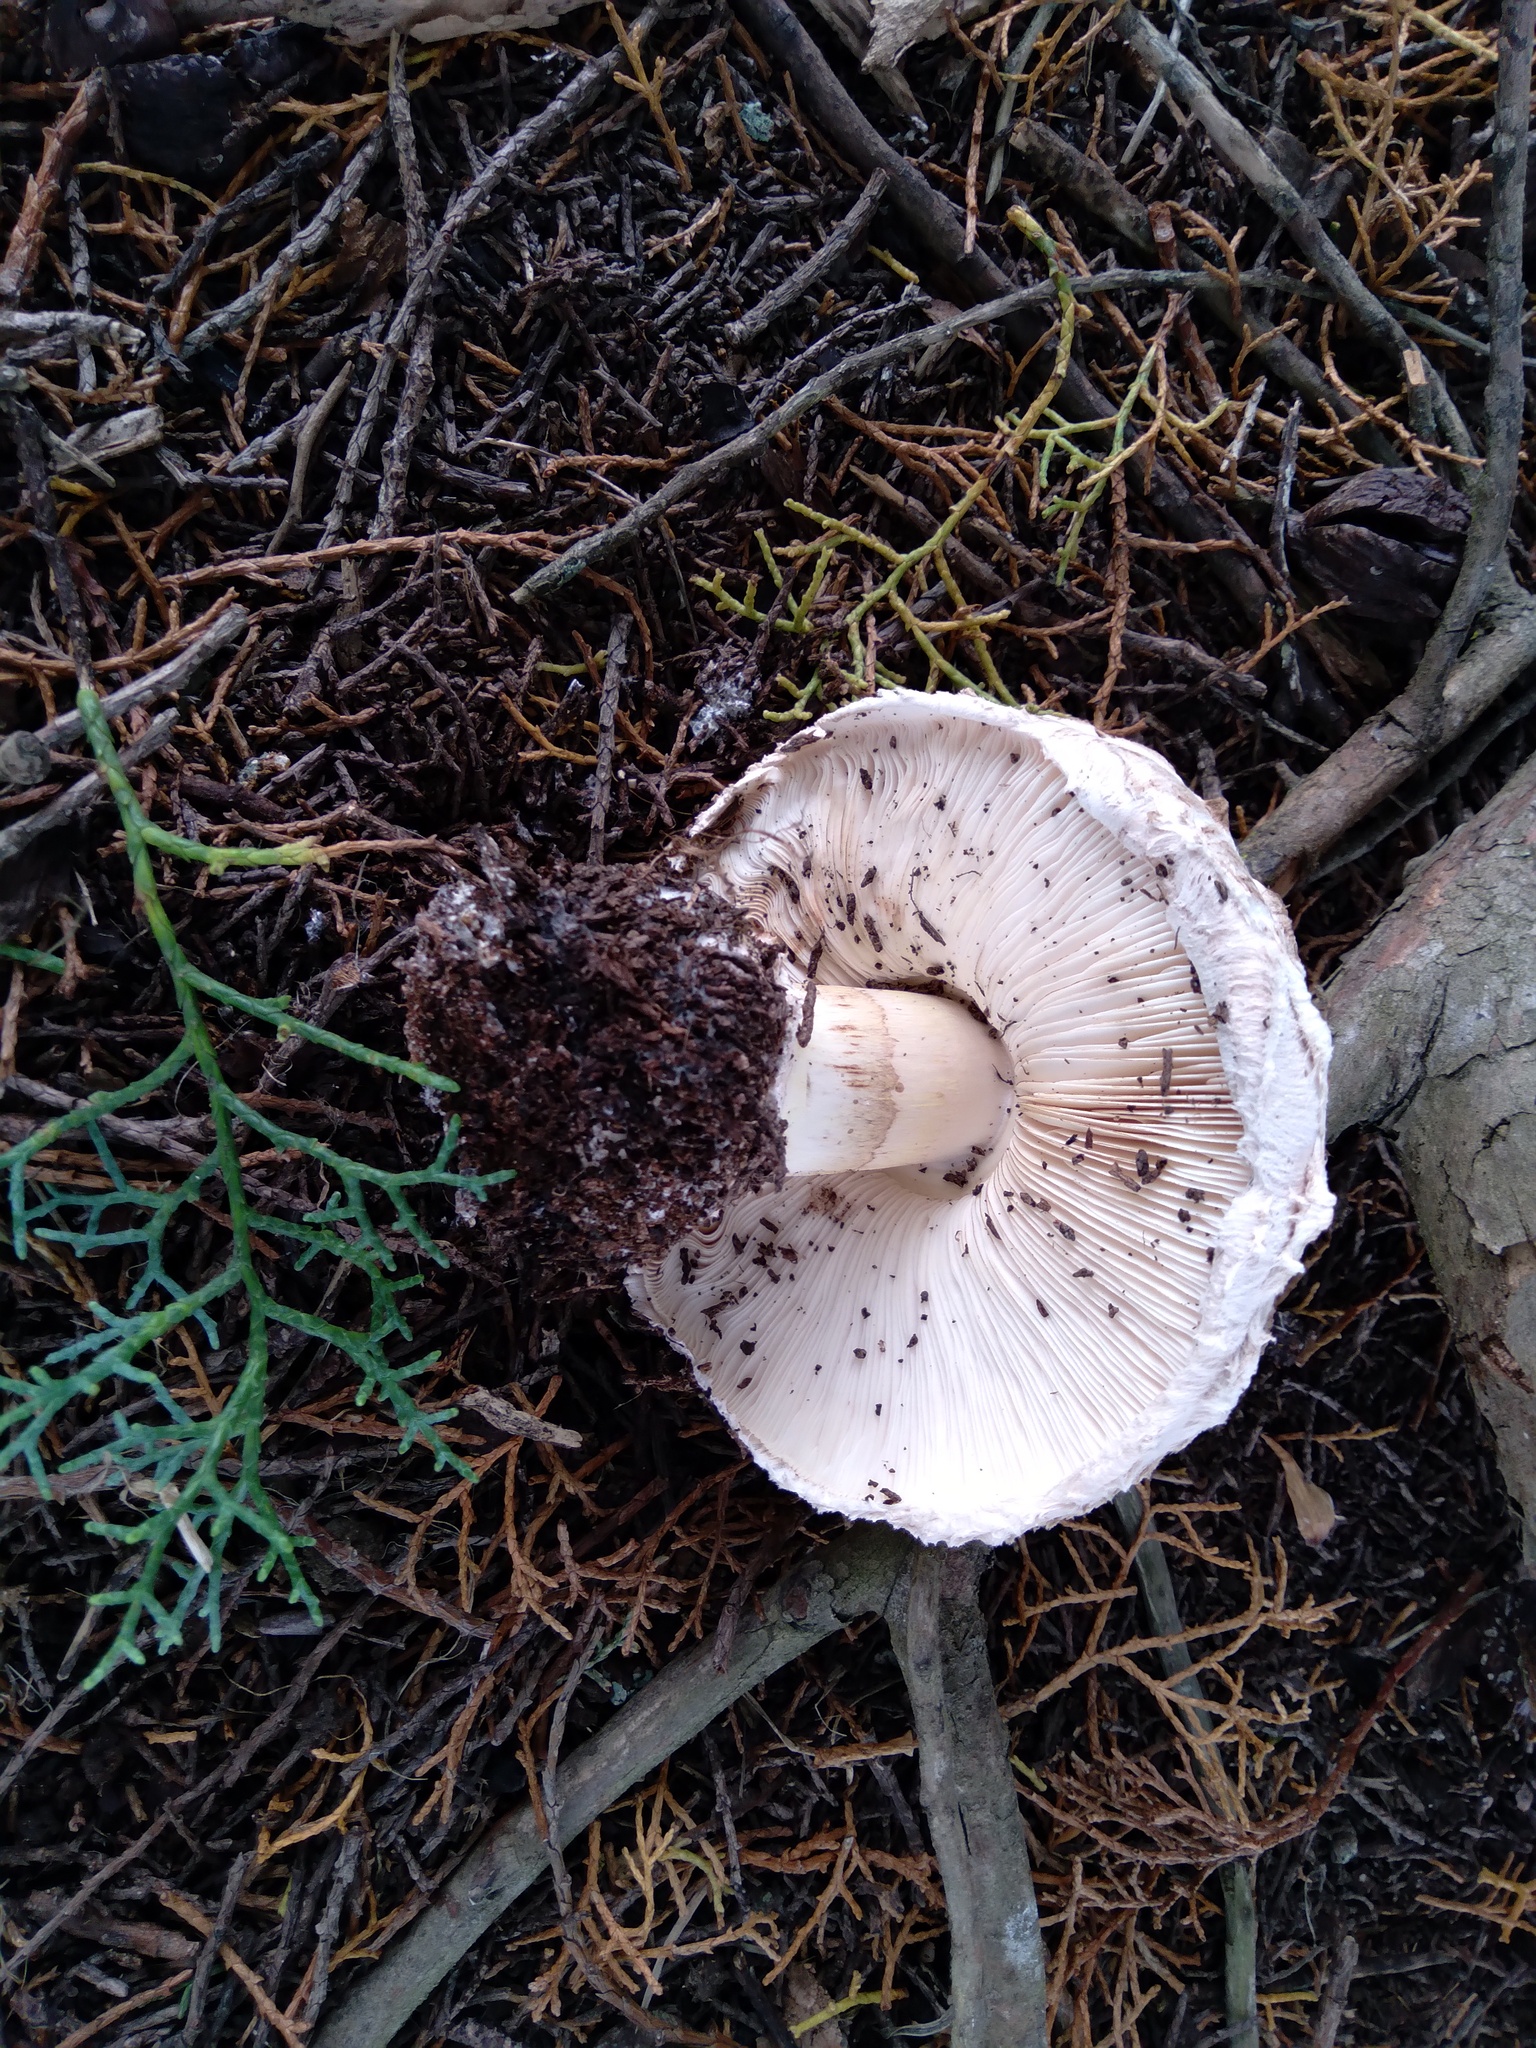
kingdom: Fungi
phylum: Basidiomycota
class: Agaricomycetes
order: Agaricales
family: Agaricaceae
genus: Chlorophyllum
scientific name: Chlorophyllum brunneum
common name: Brown parasol
